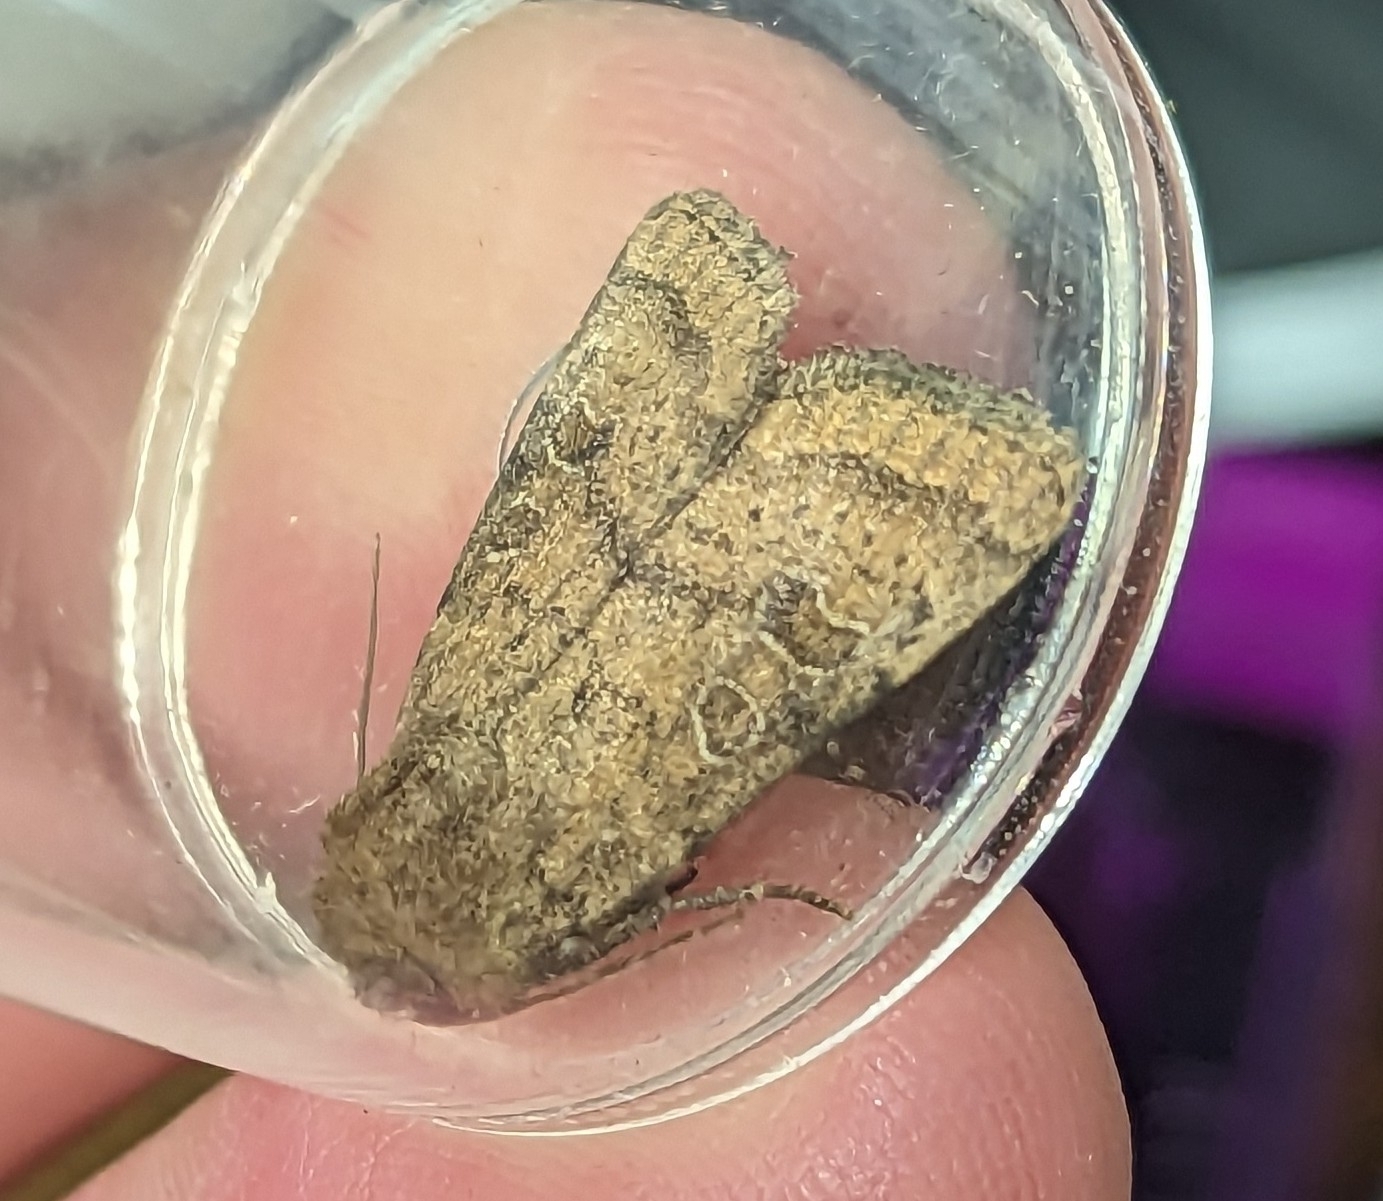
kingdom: Animalia
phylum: Arthropoda
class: Insecta
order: Lepidoptera
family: Noctuidae
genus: Hoplodrina
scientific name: Hoplodrina octogenaria
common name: Uncertain
